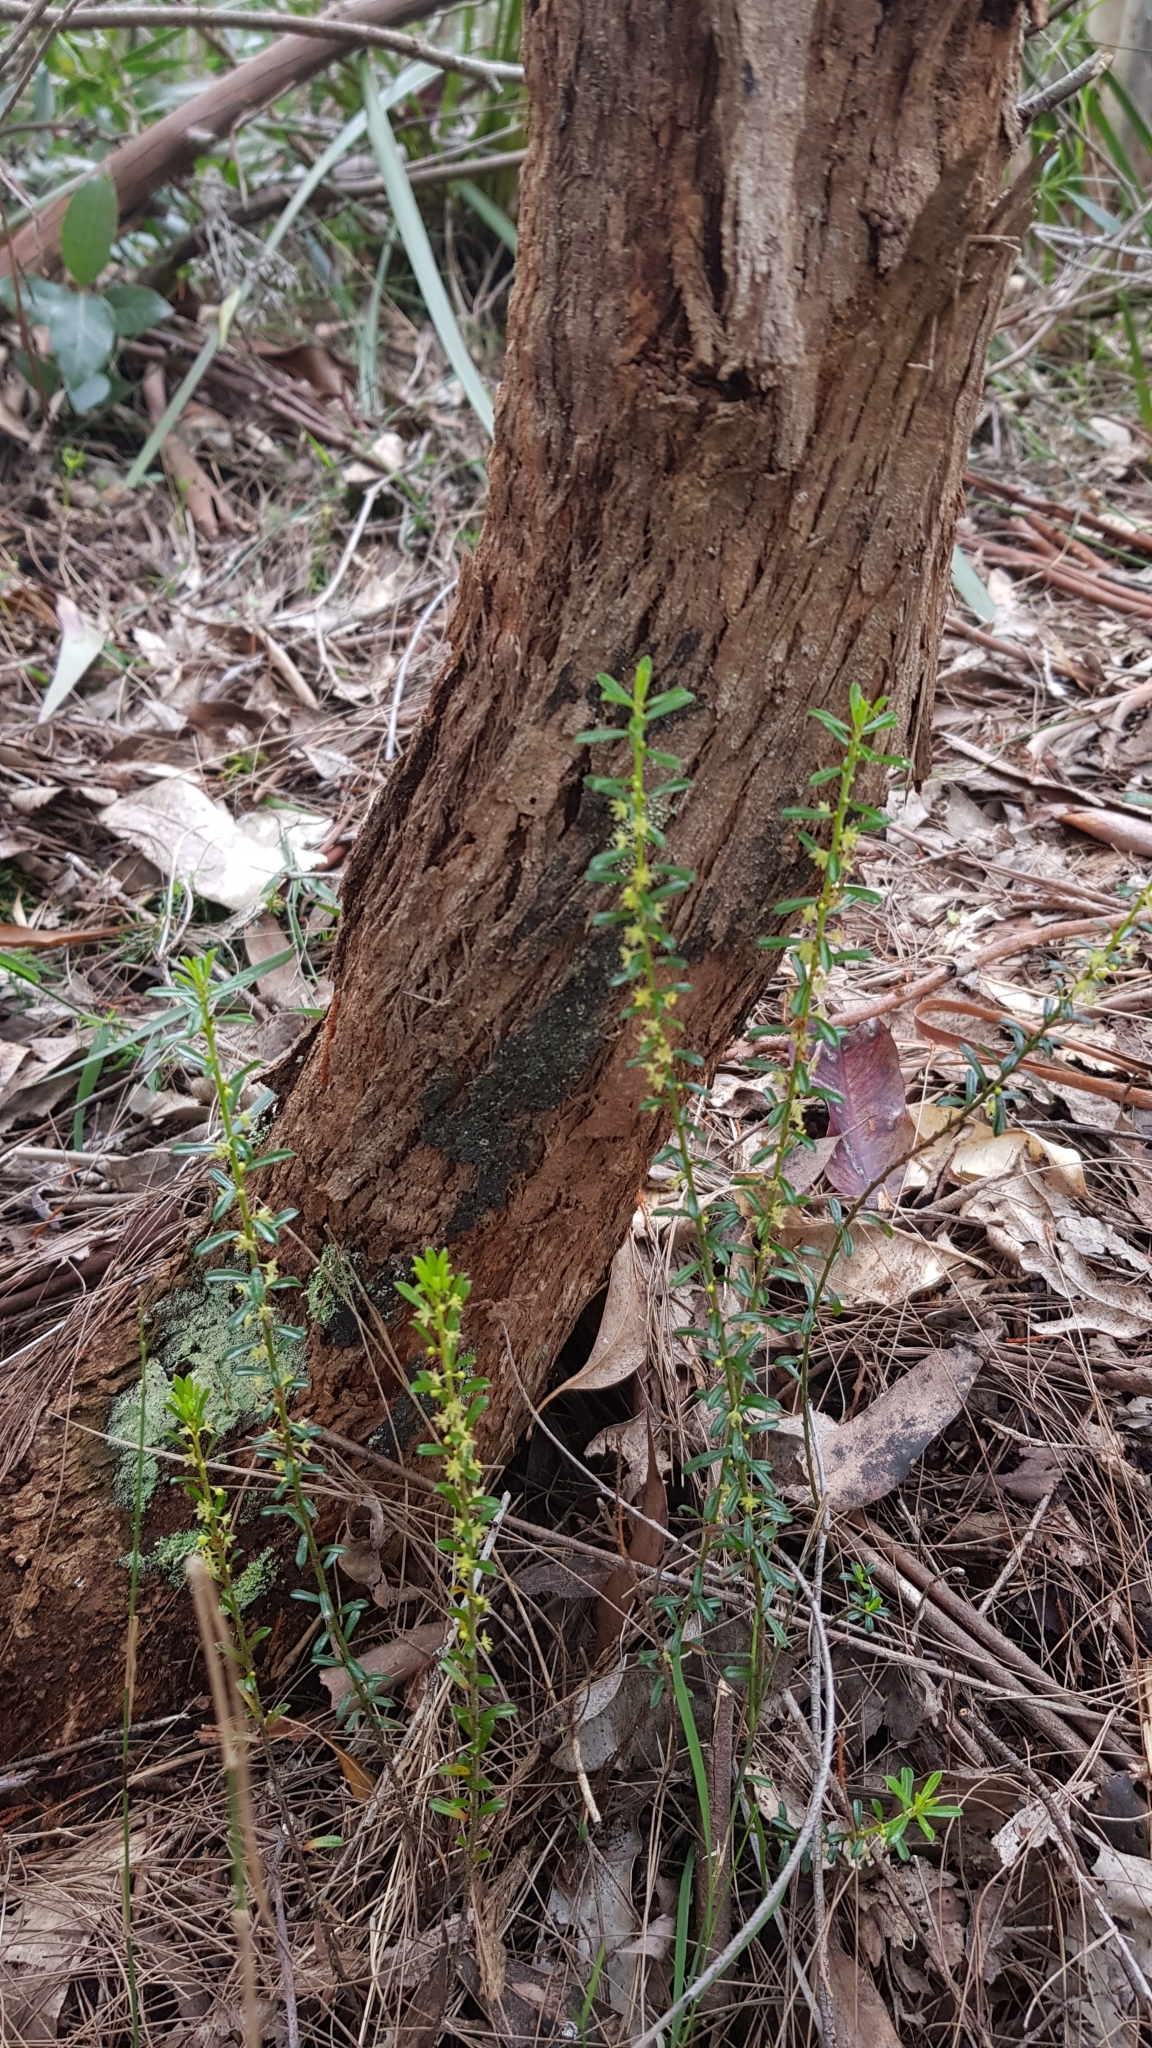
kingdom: Plantae
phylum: Tracheophyta
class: Magnoliopsida
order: Malpighiales
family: Phyllanthaceae
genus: Phyllanthus
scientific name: Phyllanthus hirtellus
